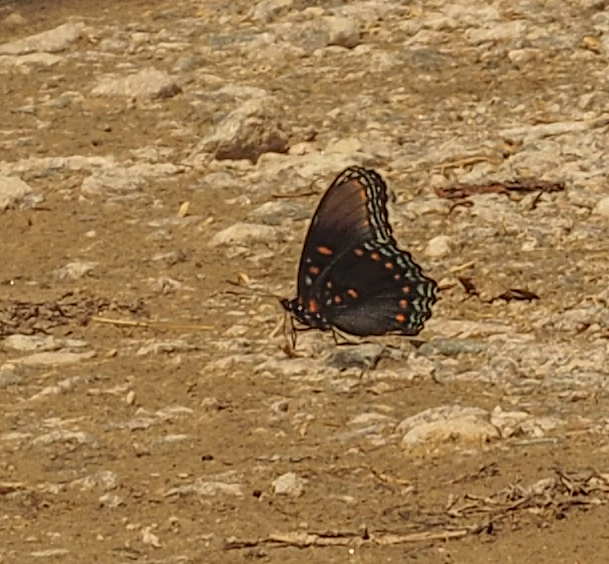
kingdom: Animalia
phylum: Arthropoda
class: Insecta
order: Lepidoptera
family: Nymphalidae
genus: Limenitis
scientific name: Limenitis astyanax
